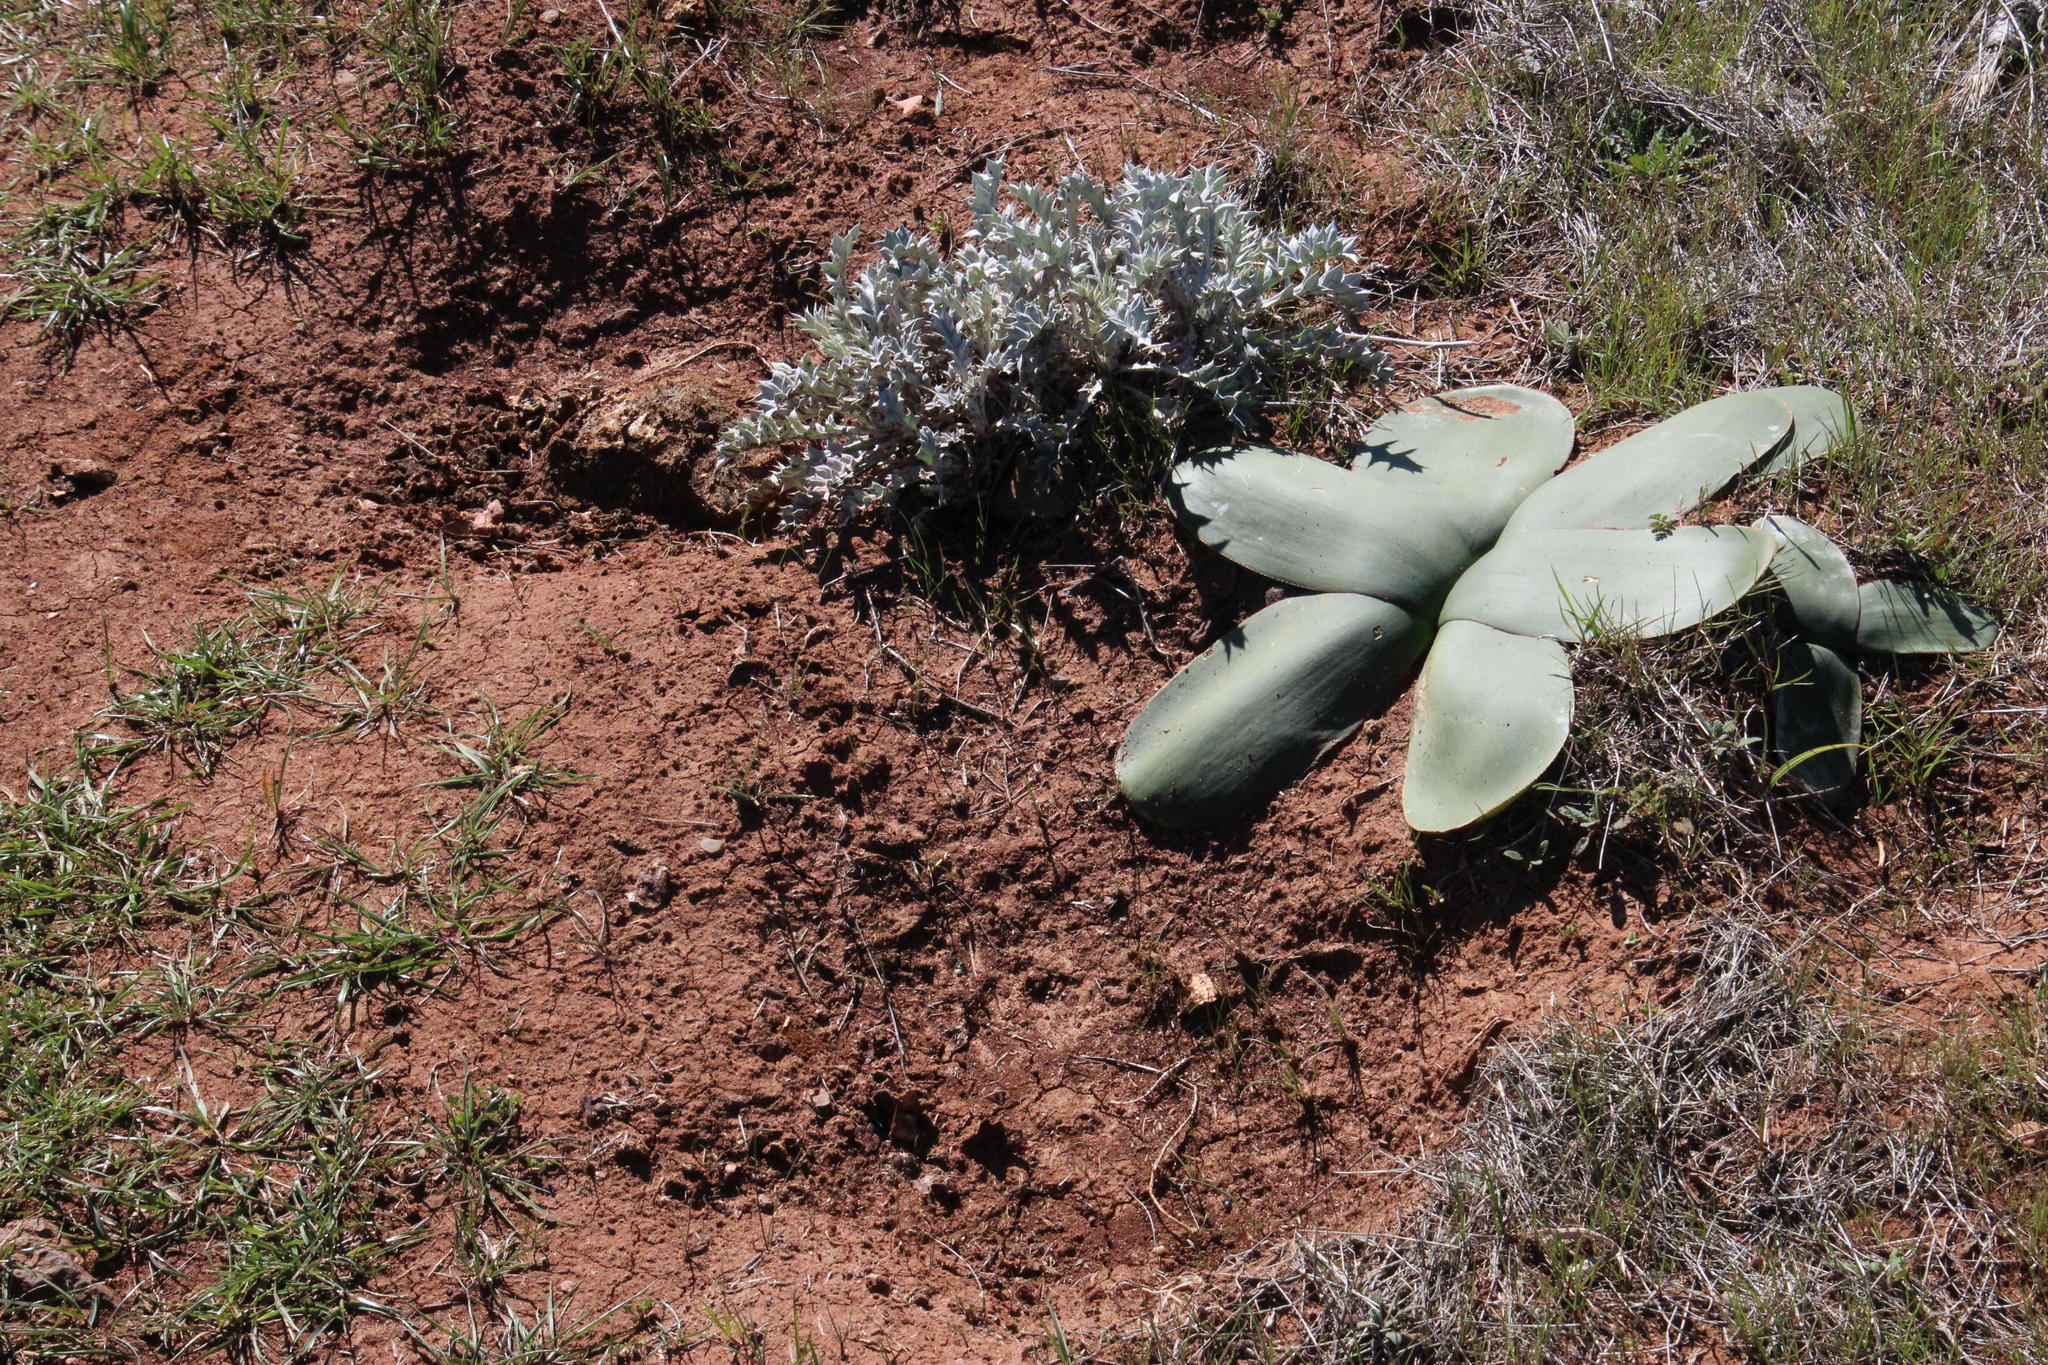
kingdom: Plantae
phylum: Tracheophyta
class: Liliopsida
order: Asparagales
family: Amaryllidaceae
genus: Brunsvigia
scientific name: Brunsvigia bosmaniae
